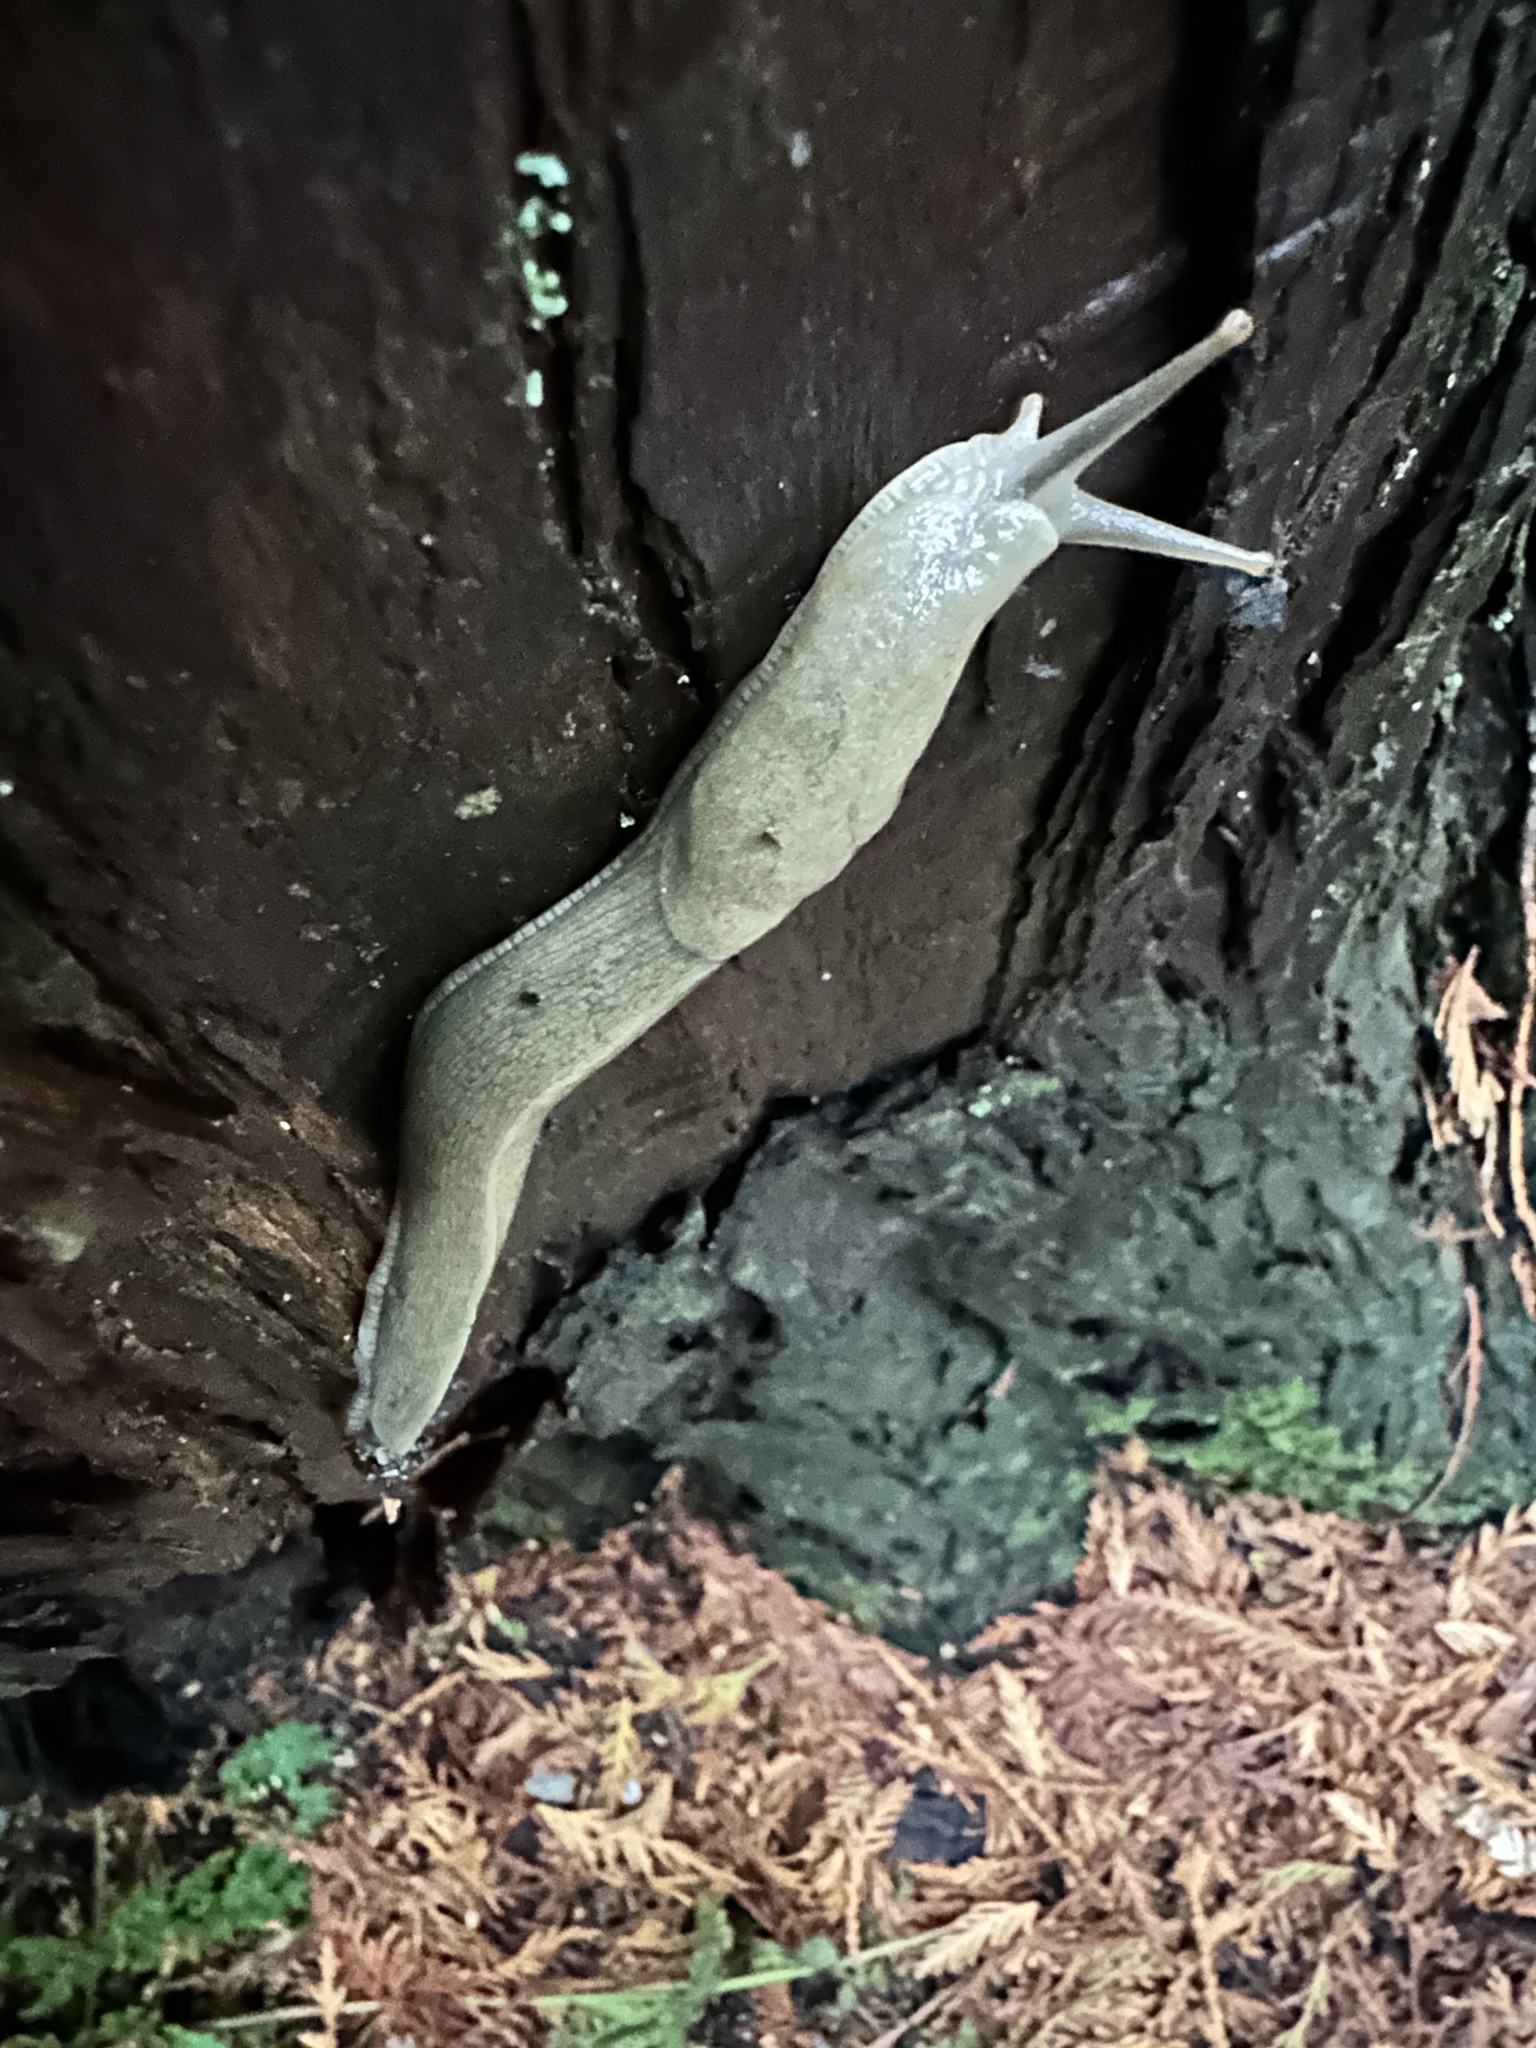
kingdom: Animalia
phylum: Mollusca
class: Gastropoda
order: Stylommatophora
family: Ariolimacidae
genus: Ariolimax
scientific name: Ariolimax columbianus
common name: Pacific banana slug
